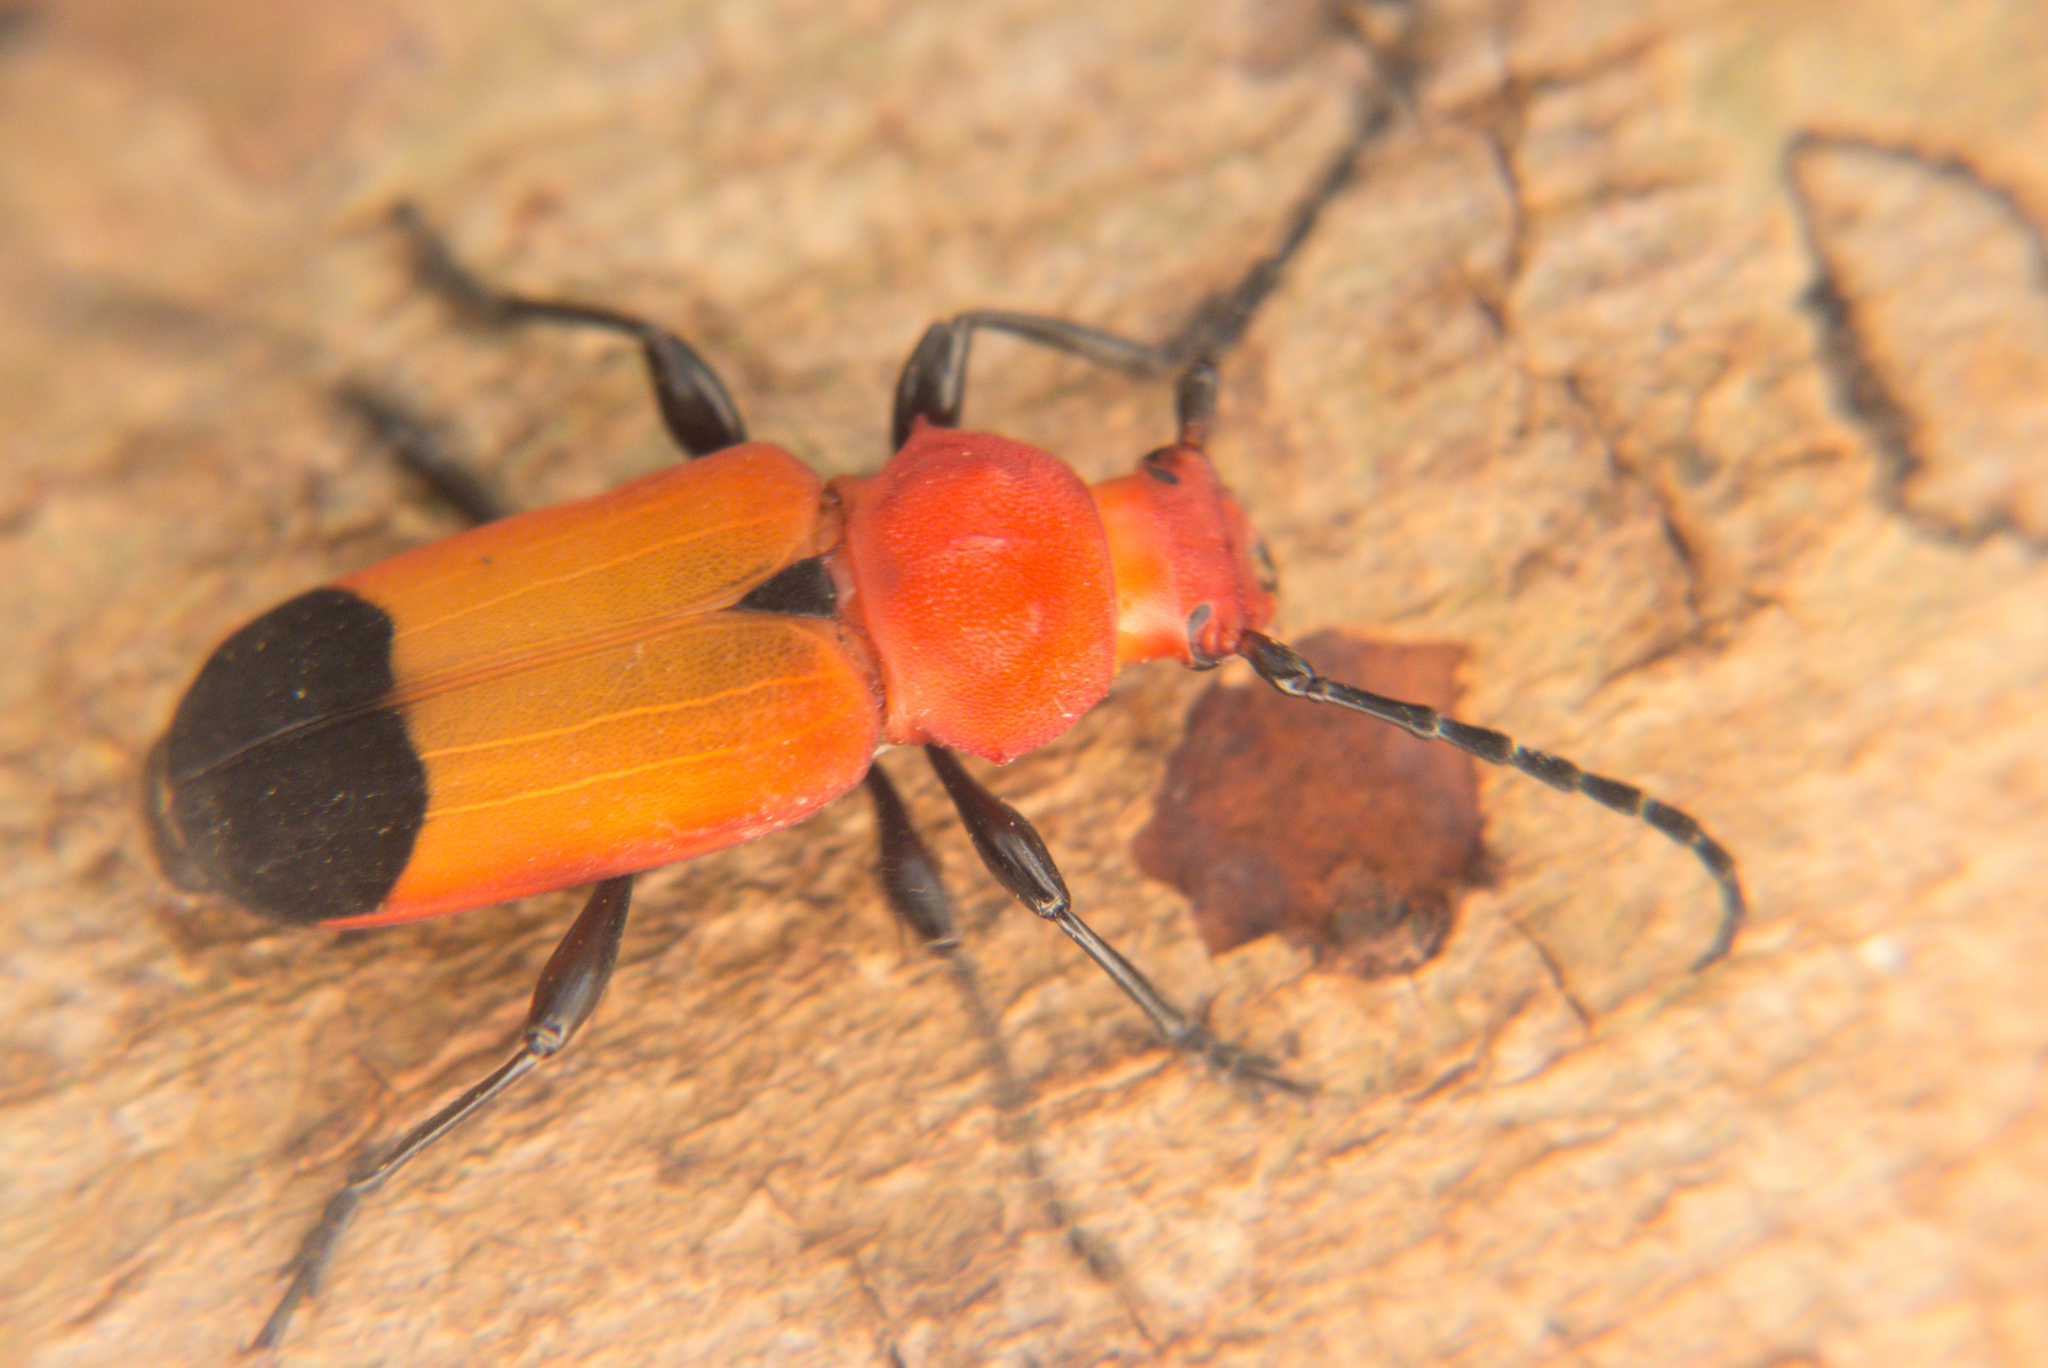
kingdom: Animalia
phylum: Arthropoda
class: Insecta
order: Coleoptera
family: Cerambycidae
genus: Euryphagus
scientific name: Euryphagus lundii
